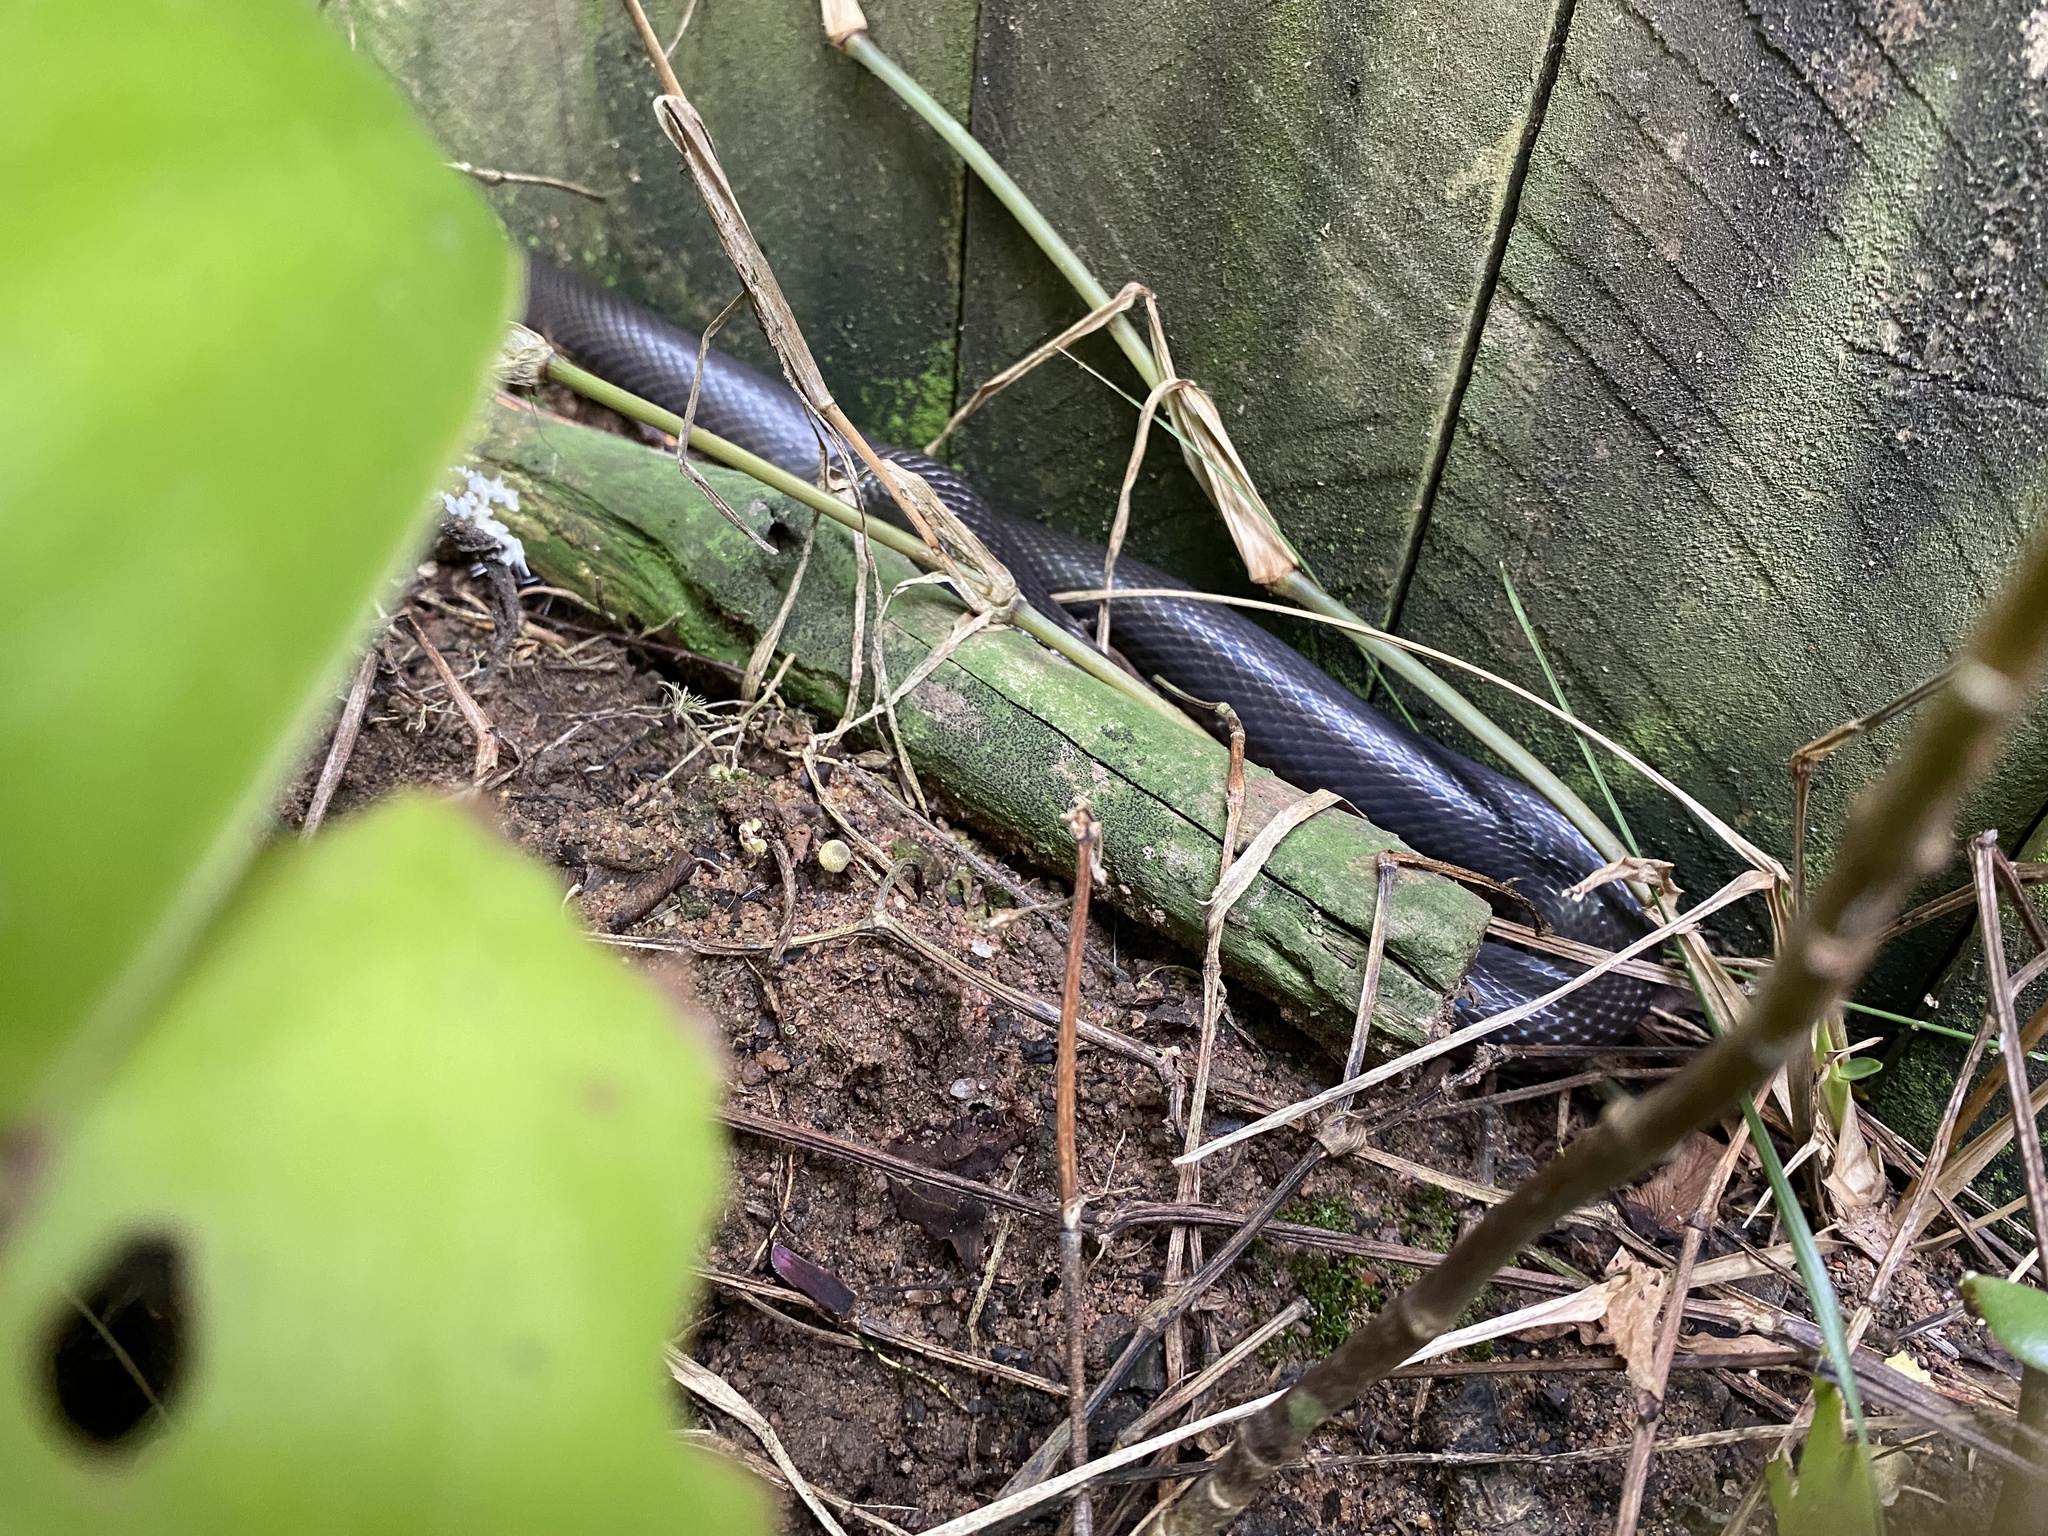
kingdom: Animalia
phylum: Chordata
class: Squamata
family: Atractaspididae
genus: Macrelaps
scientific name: Macrelaps microlepidotus
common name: Kwazulu-natal black snake
